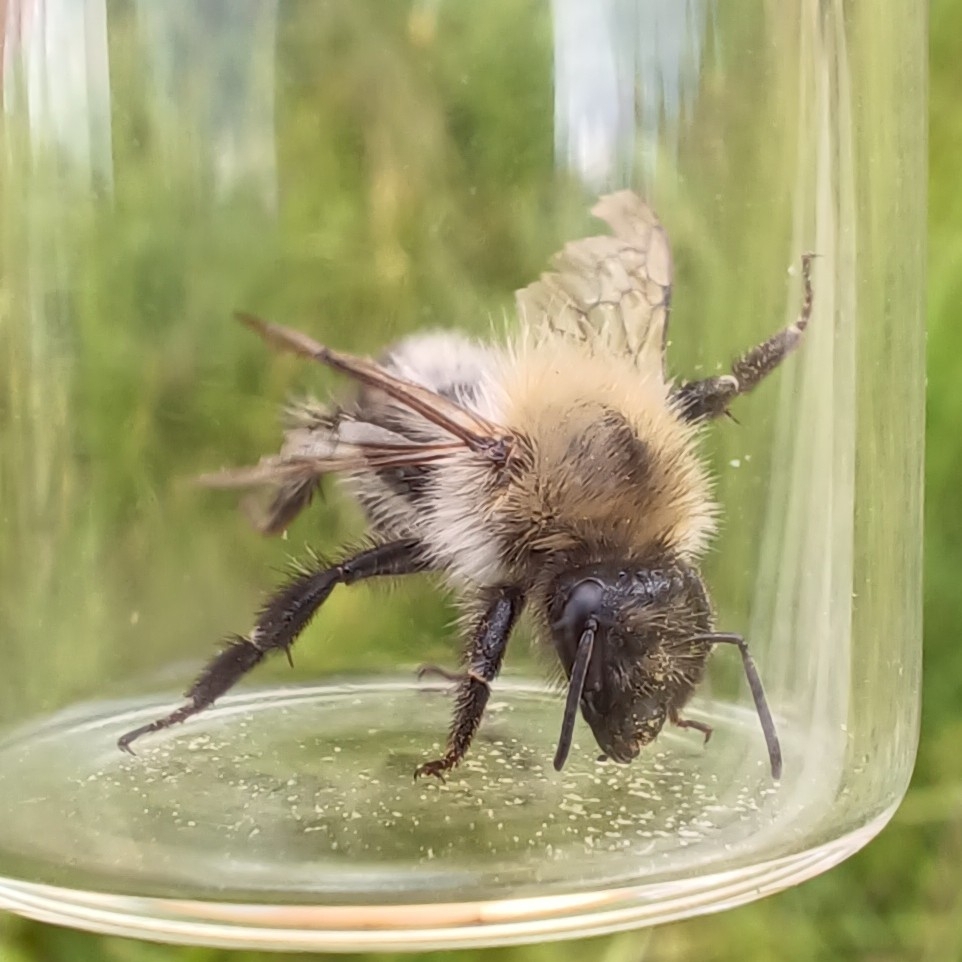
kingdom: Animalia
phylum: Arthropoda
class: Insecta
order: Hymenoptera
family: Apidae
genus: Bombus
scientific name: Bombus pascuorum
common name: Common carder bee
